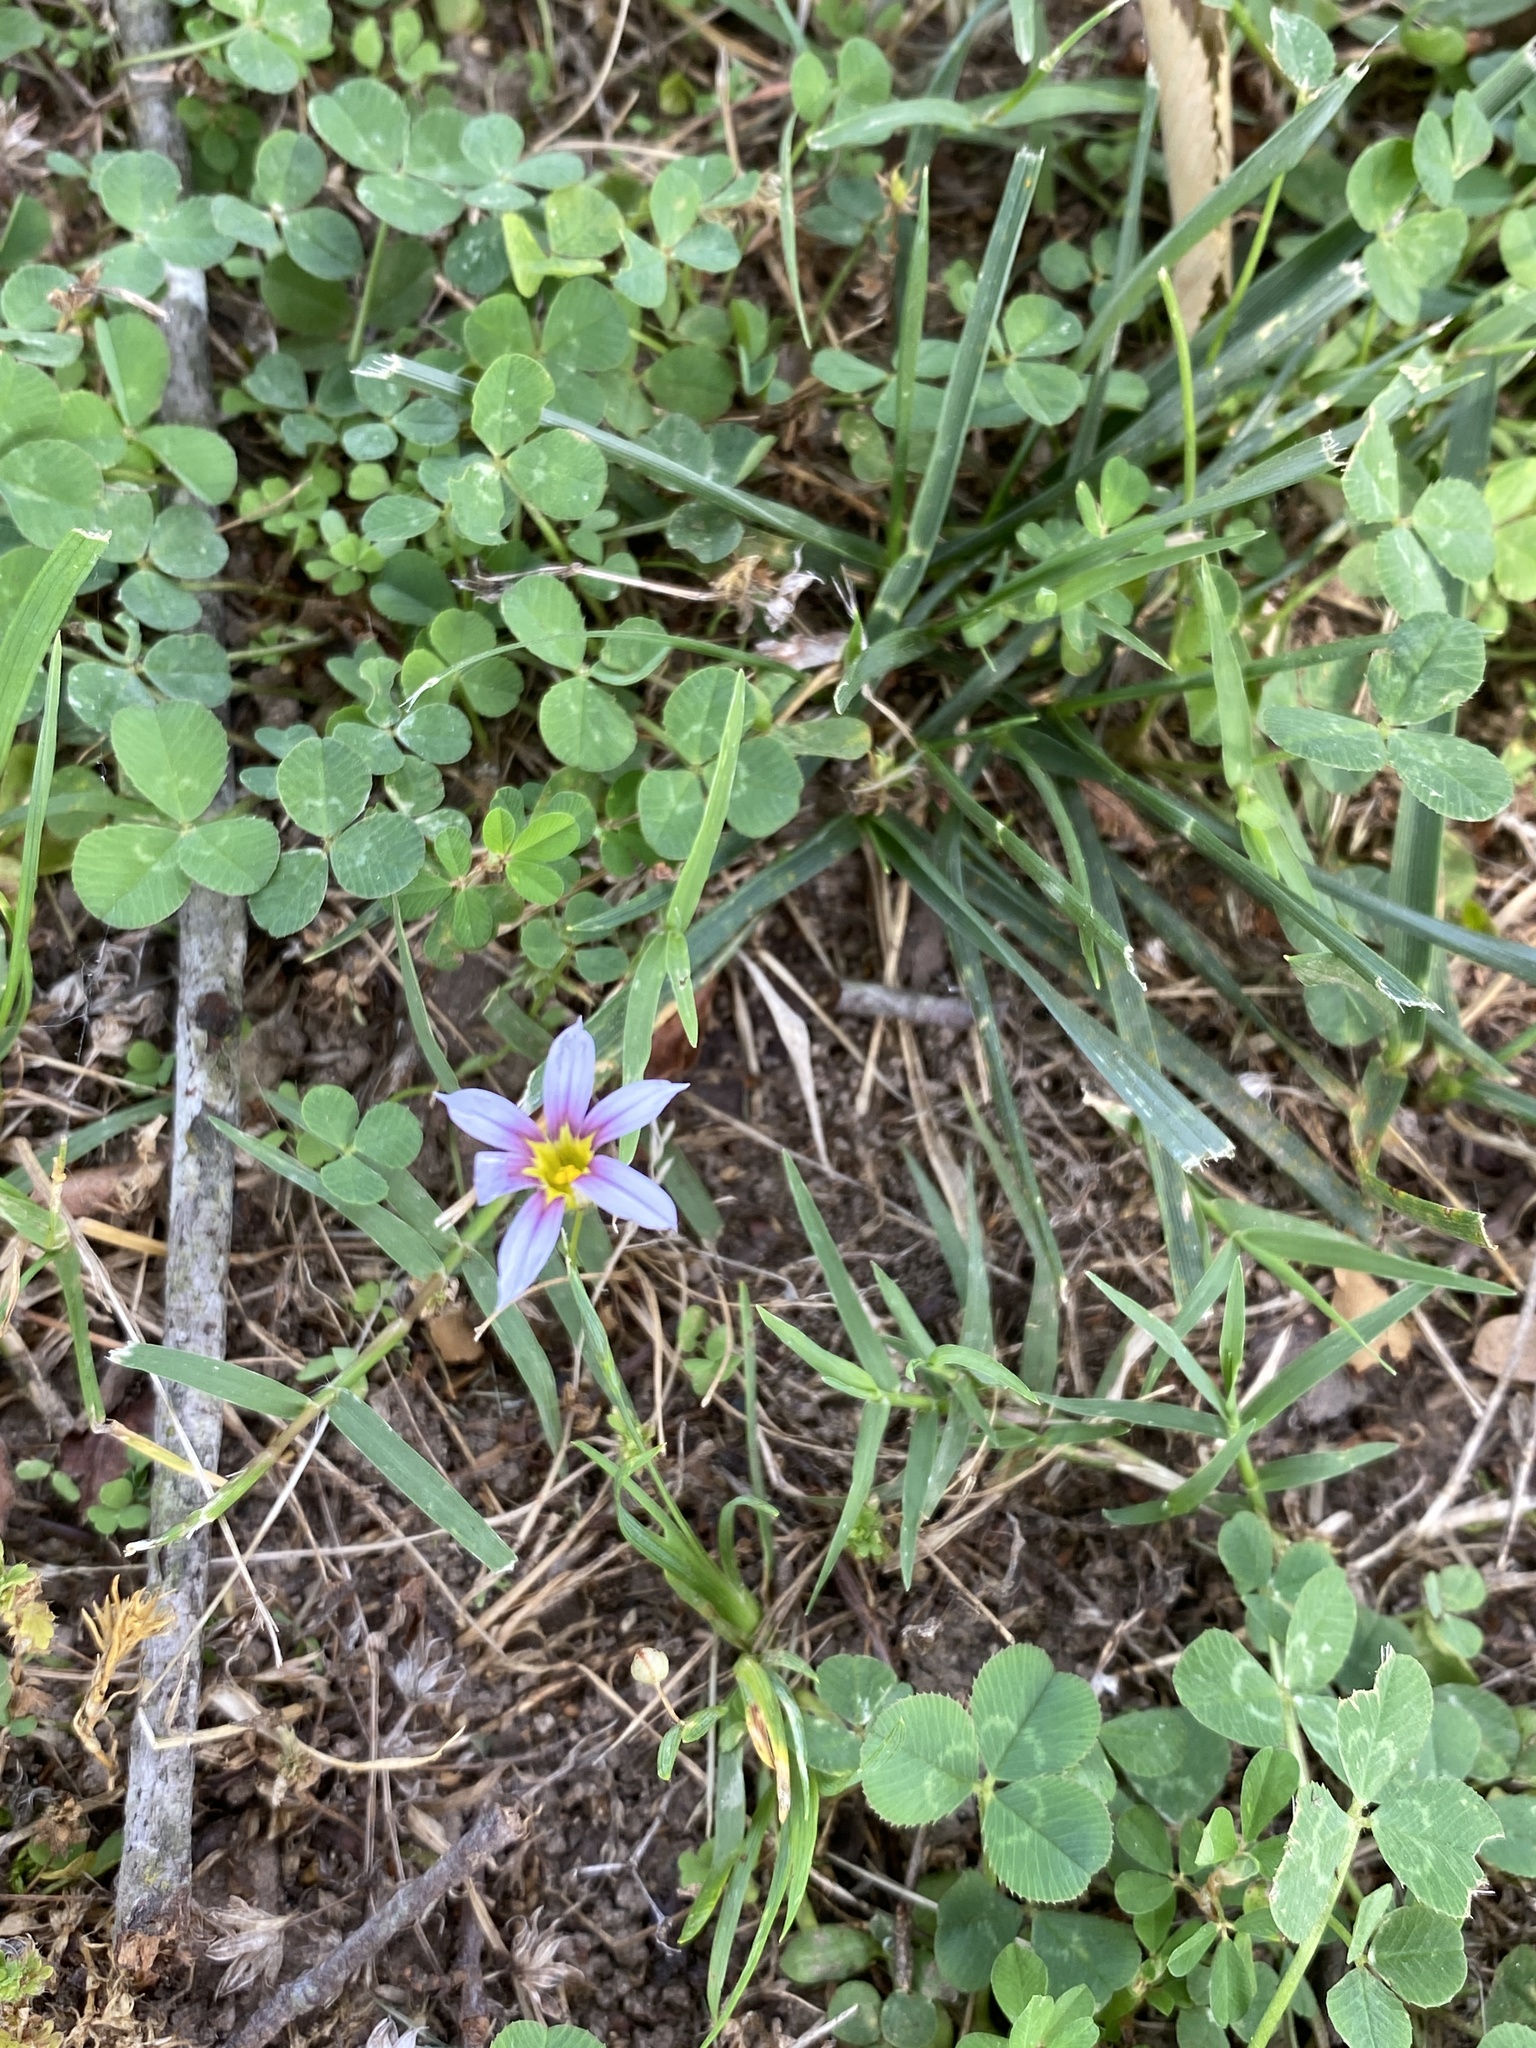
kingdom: Plantae
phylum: Tracheophyta
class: Liliopsida
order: Asparagales
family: Iridaceae
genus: Sisyrinchium
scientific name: Sisyrinchium micranthum
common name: Bermuda pigroot
